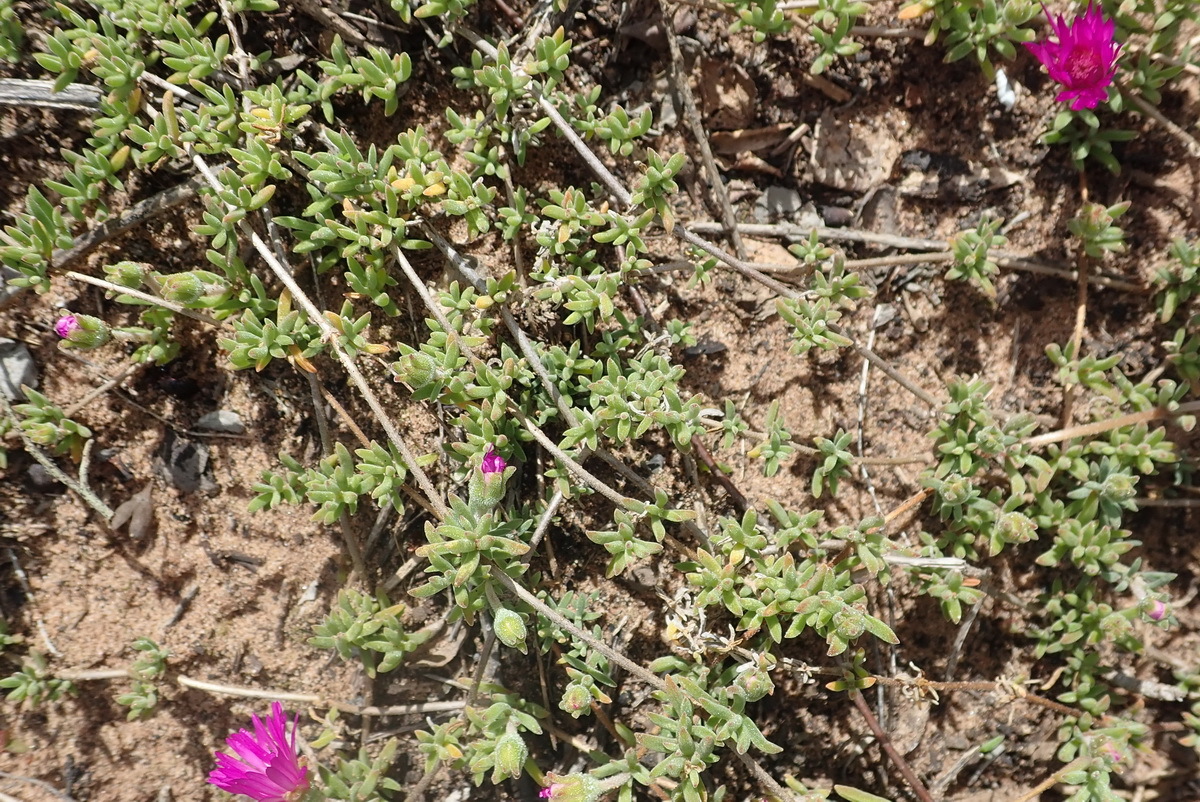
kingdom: Plantae
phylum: Tracheophyta
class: Magnoliopsida
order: Caryophyllales
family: Aizoaceae
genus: Drosanthemum
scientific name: Drosanthemum calcareum
